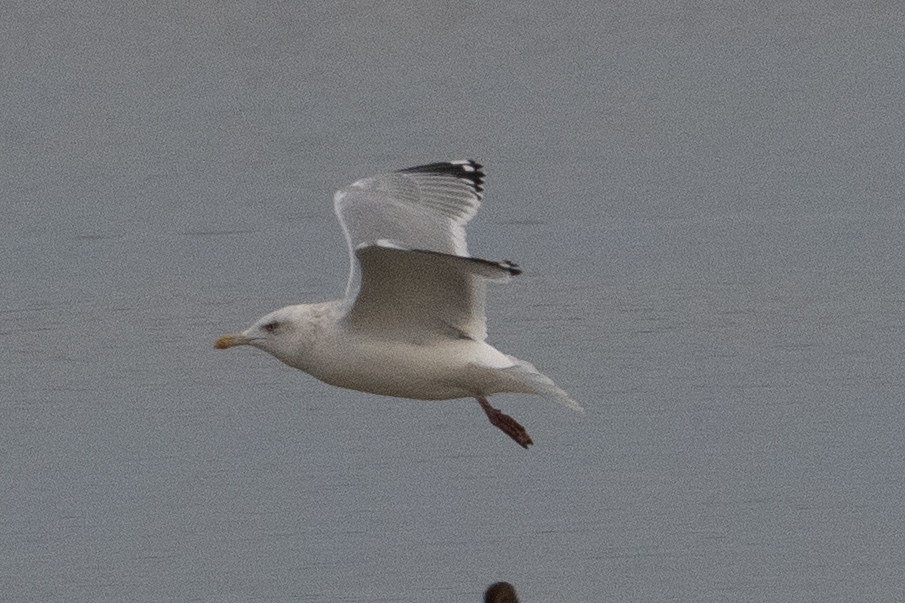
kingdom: Animalia
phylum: Chordata
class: Aves
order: Charadriiformes
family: Laridae
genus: Larus
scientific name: Larus argentatus
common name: Herring gull
